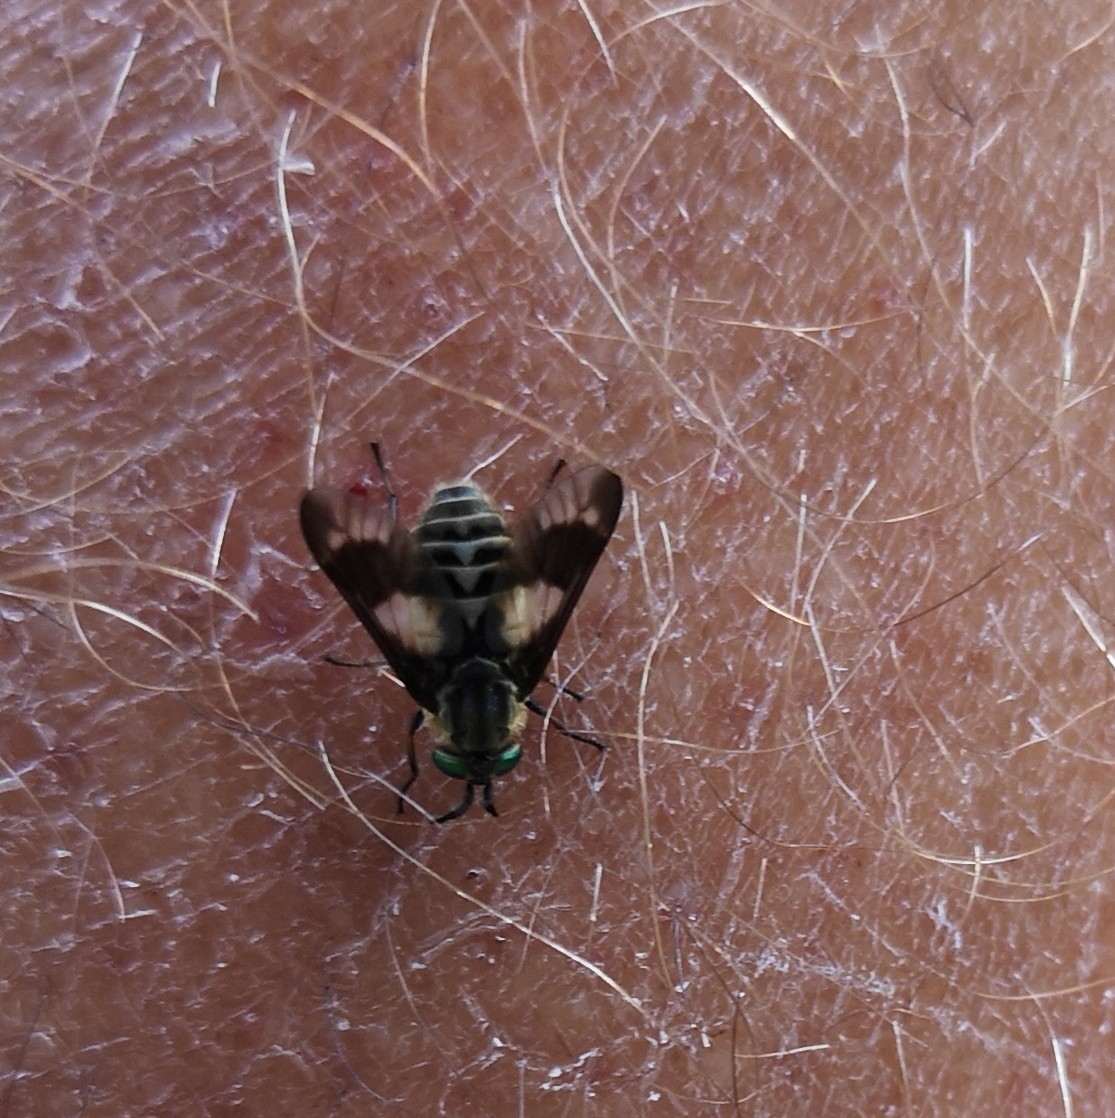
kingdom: Animalia
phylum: Arthropoda
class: Insecta
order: Diptera
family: Tabanidae
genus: Chrysops
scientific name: Chrysops relictus
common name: Twin-lobed deerfly
